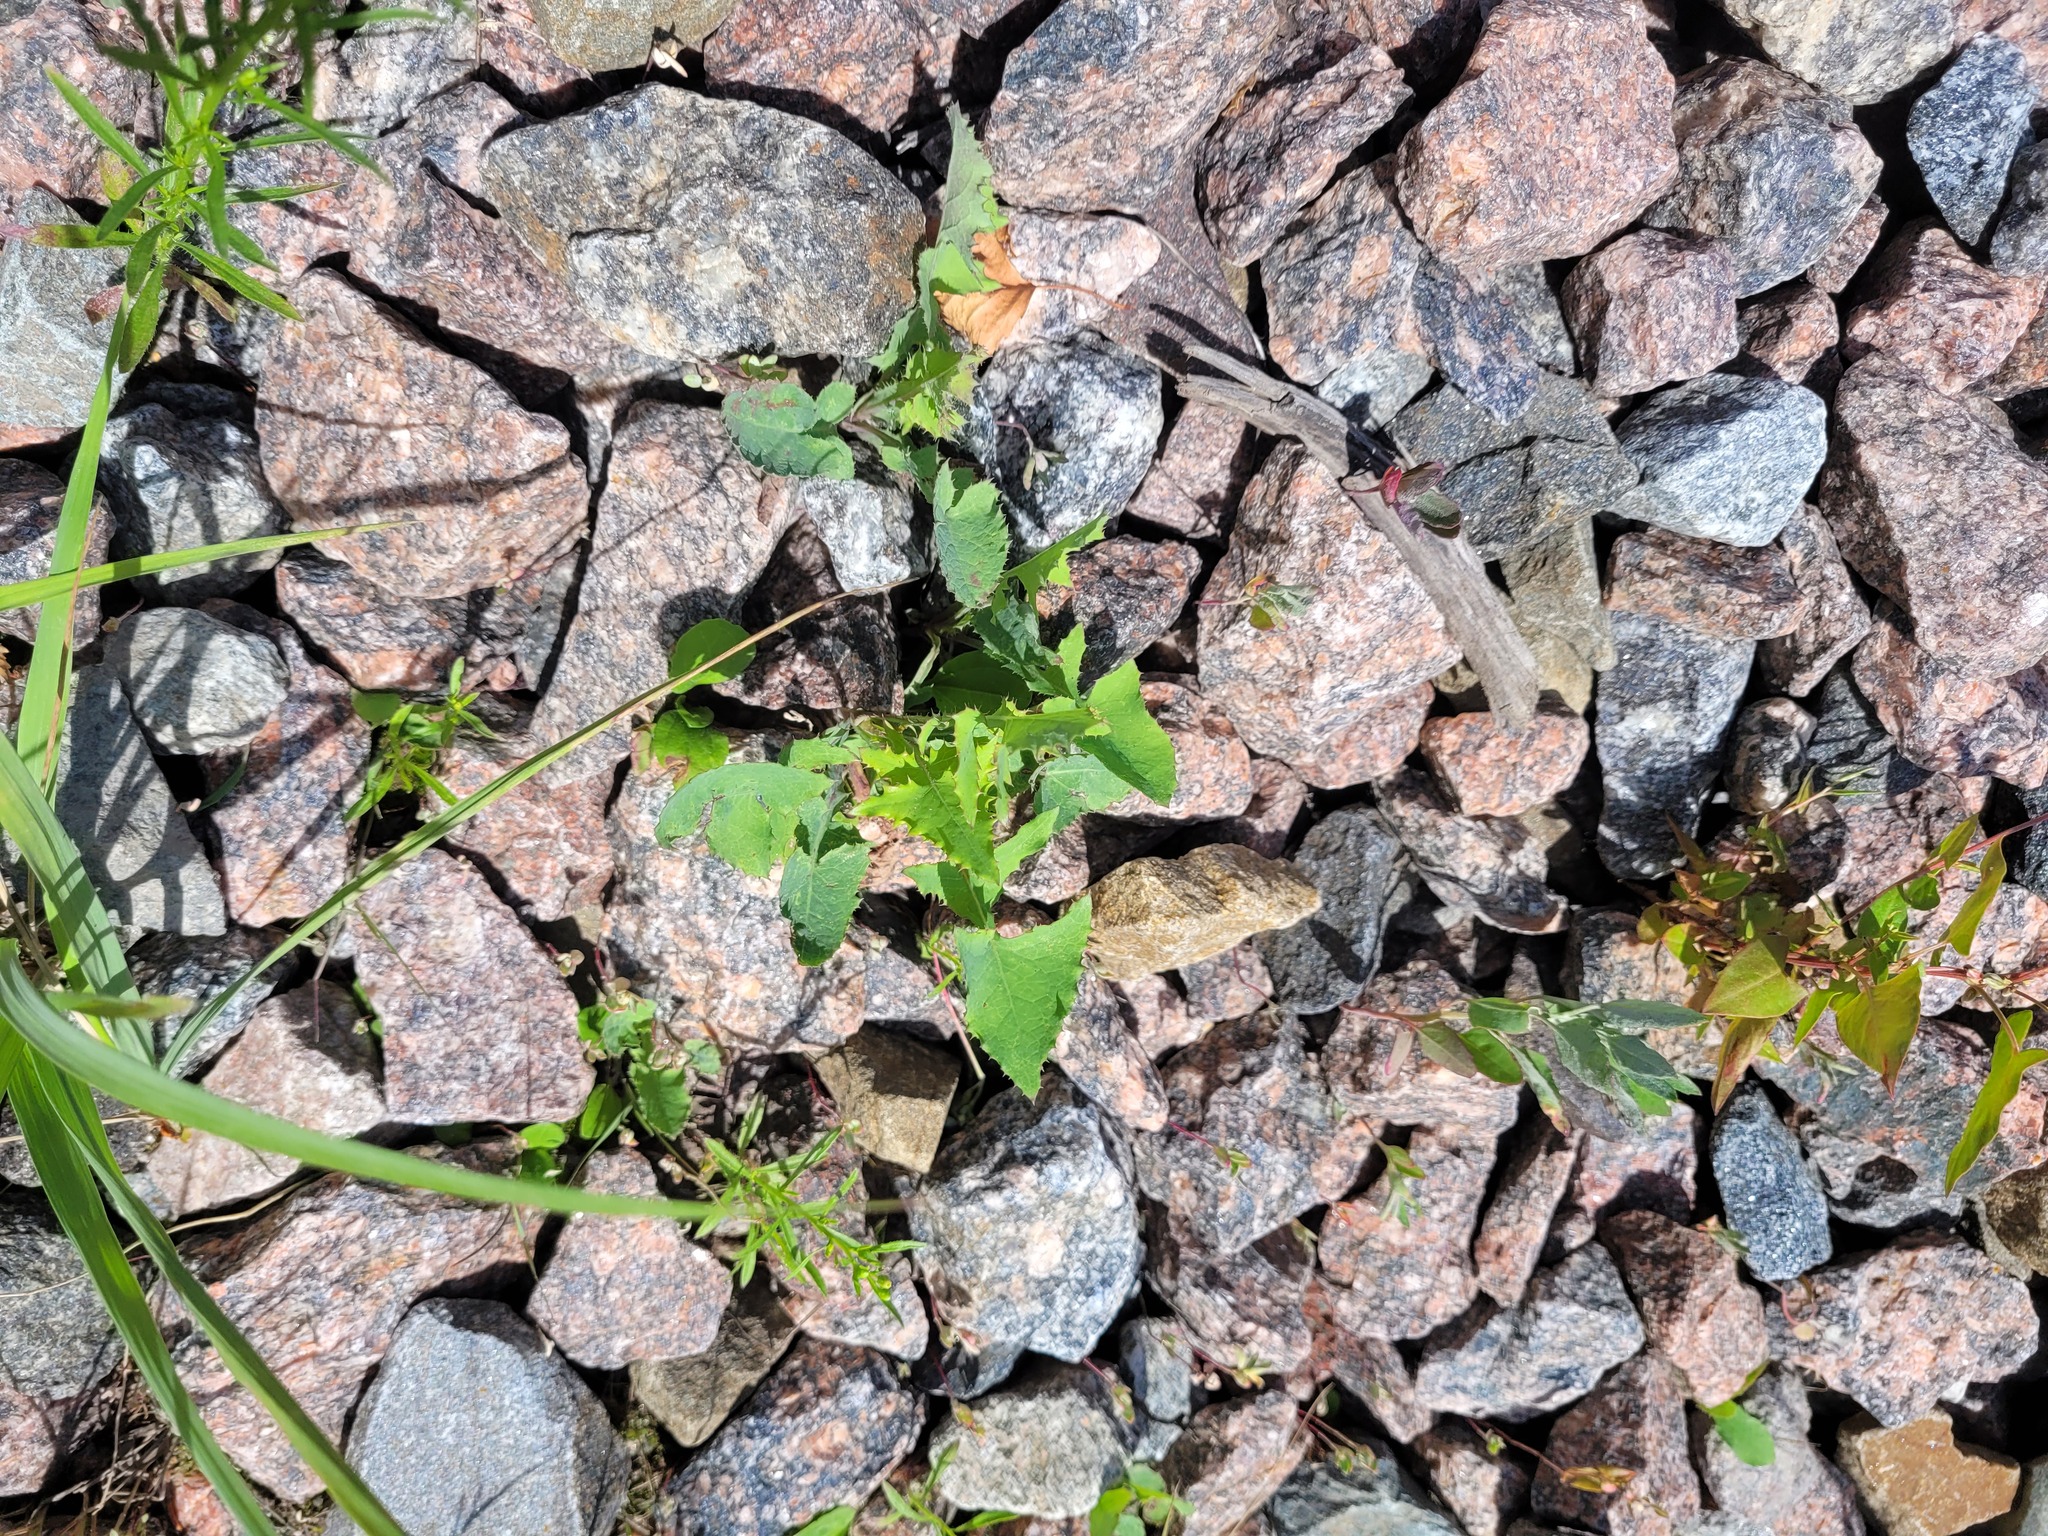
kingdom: Plantae
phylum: Tracheophyta
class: Magnoliopsida
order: Asterales
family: Asteraceae
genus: Sonchus
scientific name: Sonchus oleraceus
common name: Common sowthistle
